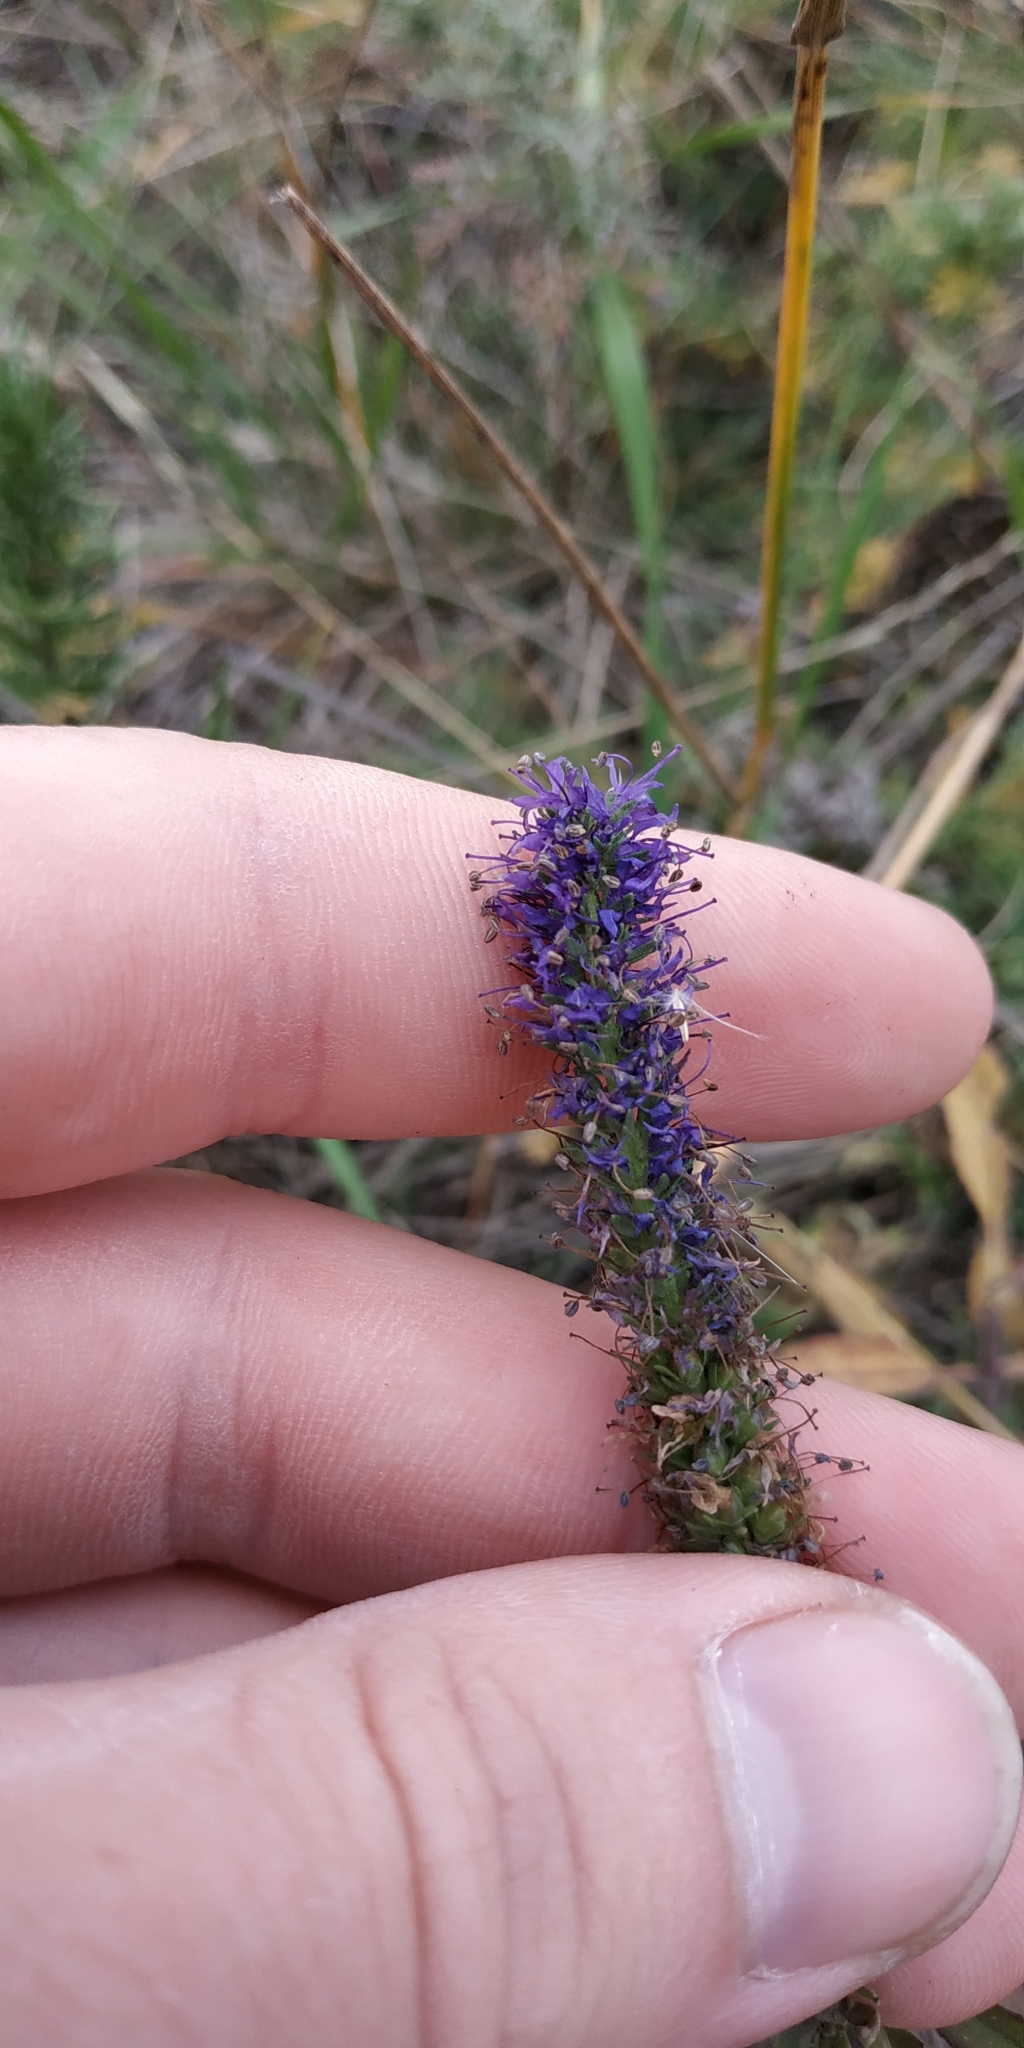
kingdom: Plantae
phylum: Tracheophyta
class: Magnoliopsida
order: Lamiales
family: Plantaginaceae
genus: Veronica
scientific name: Veronica spicata
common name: Spiked speedwell
